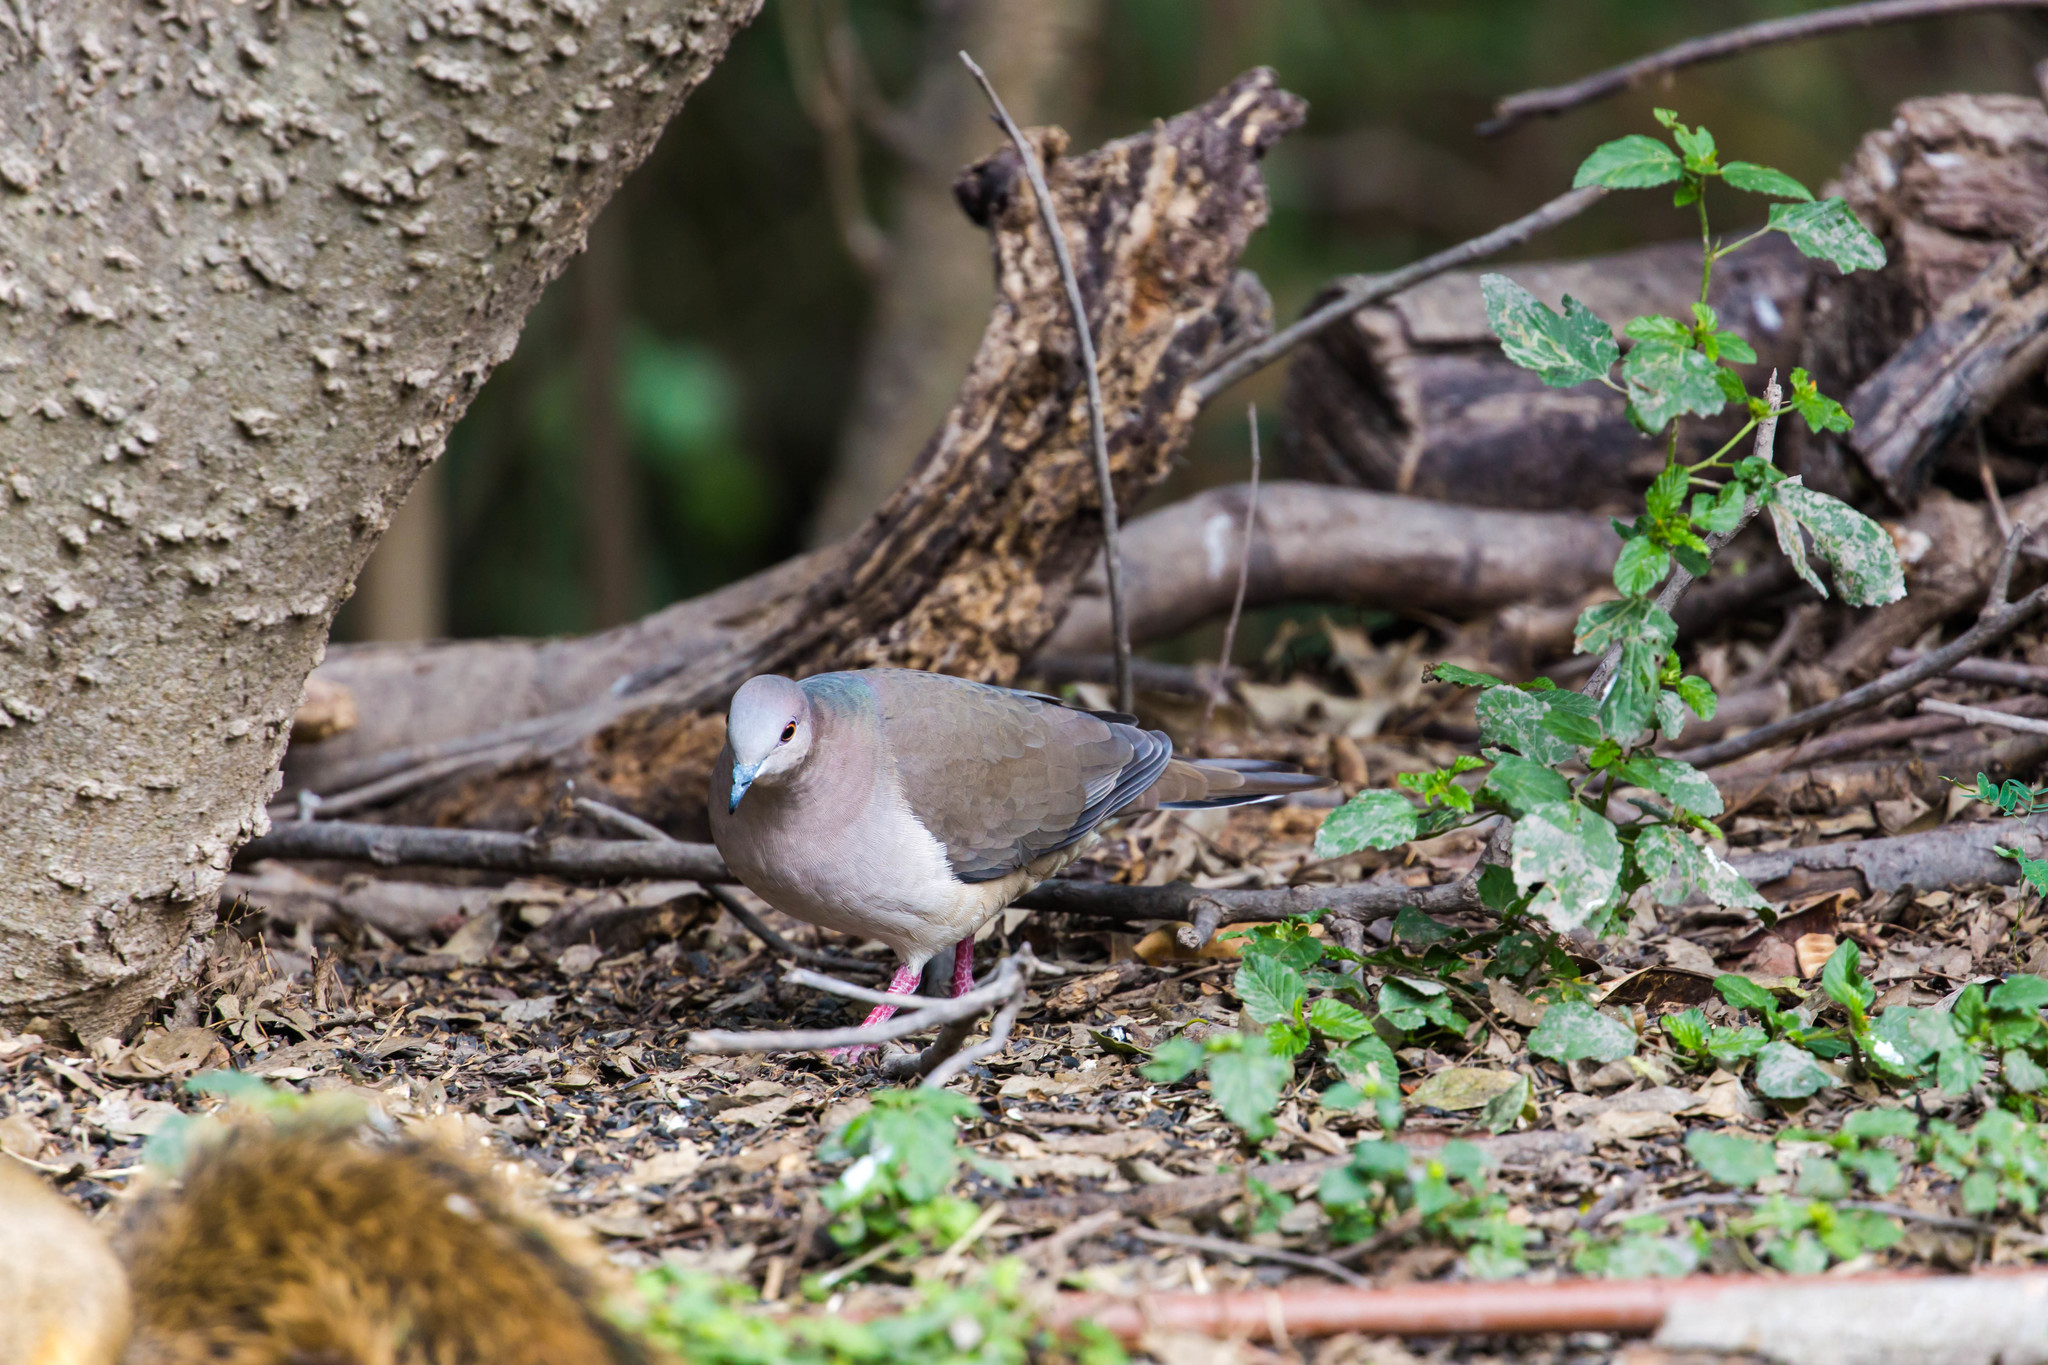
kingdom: Animalia
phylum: Chordata
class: Aves
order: Columbiformes
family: Columbidae
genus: Leptotila
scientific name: Leptotila verreauxi
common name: White-tipped dove
